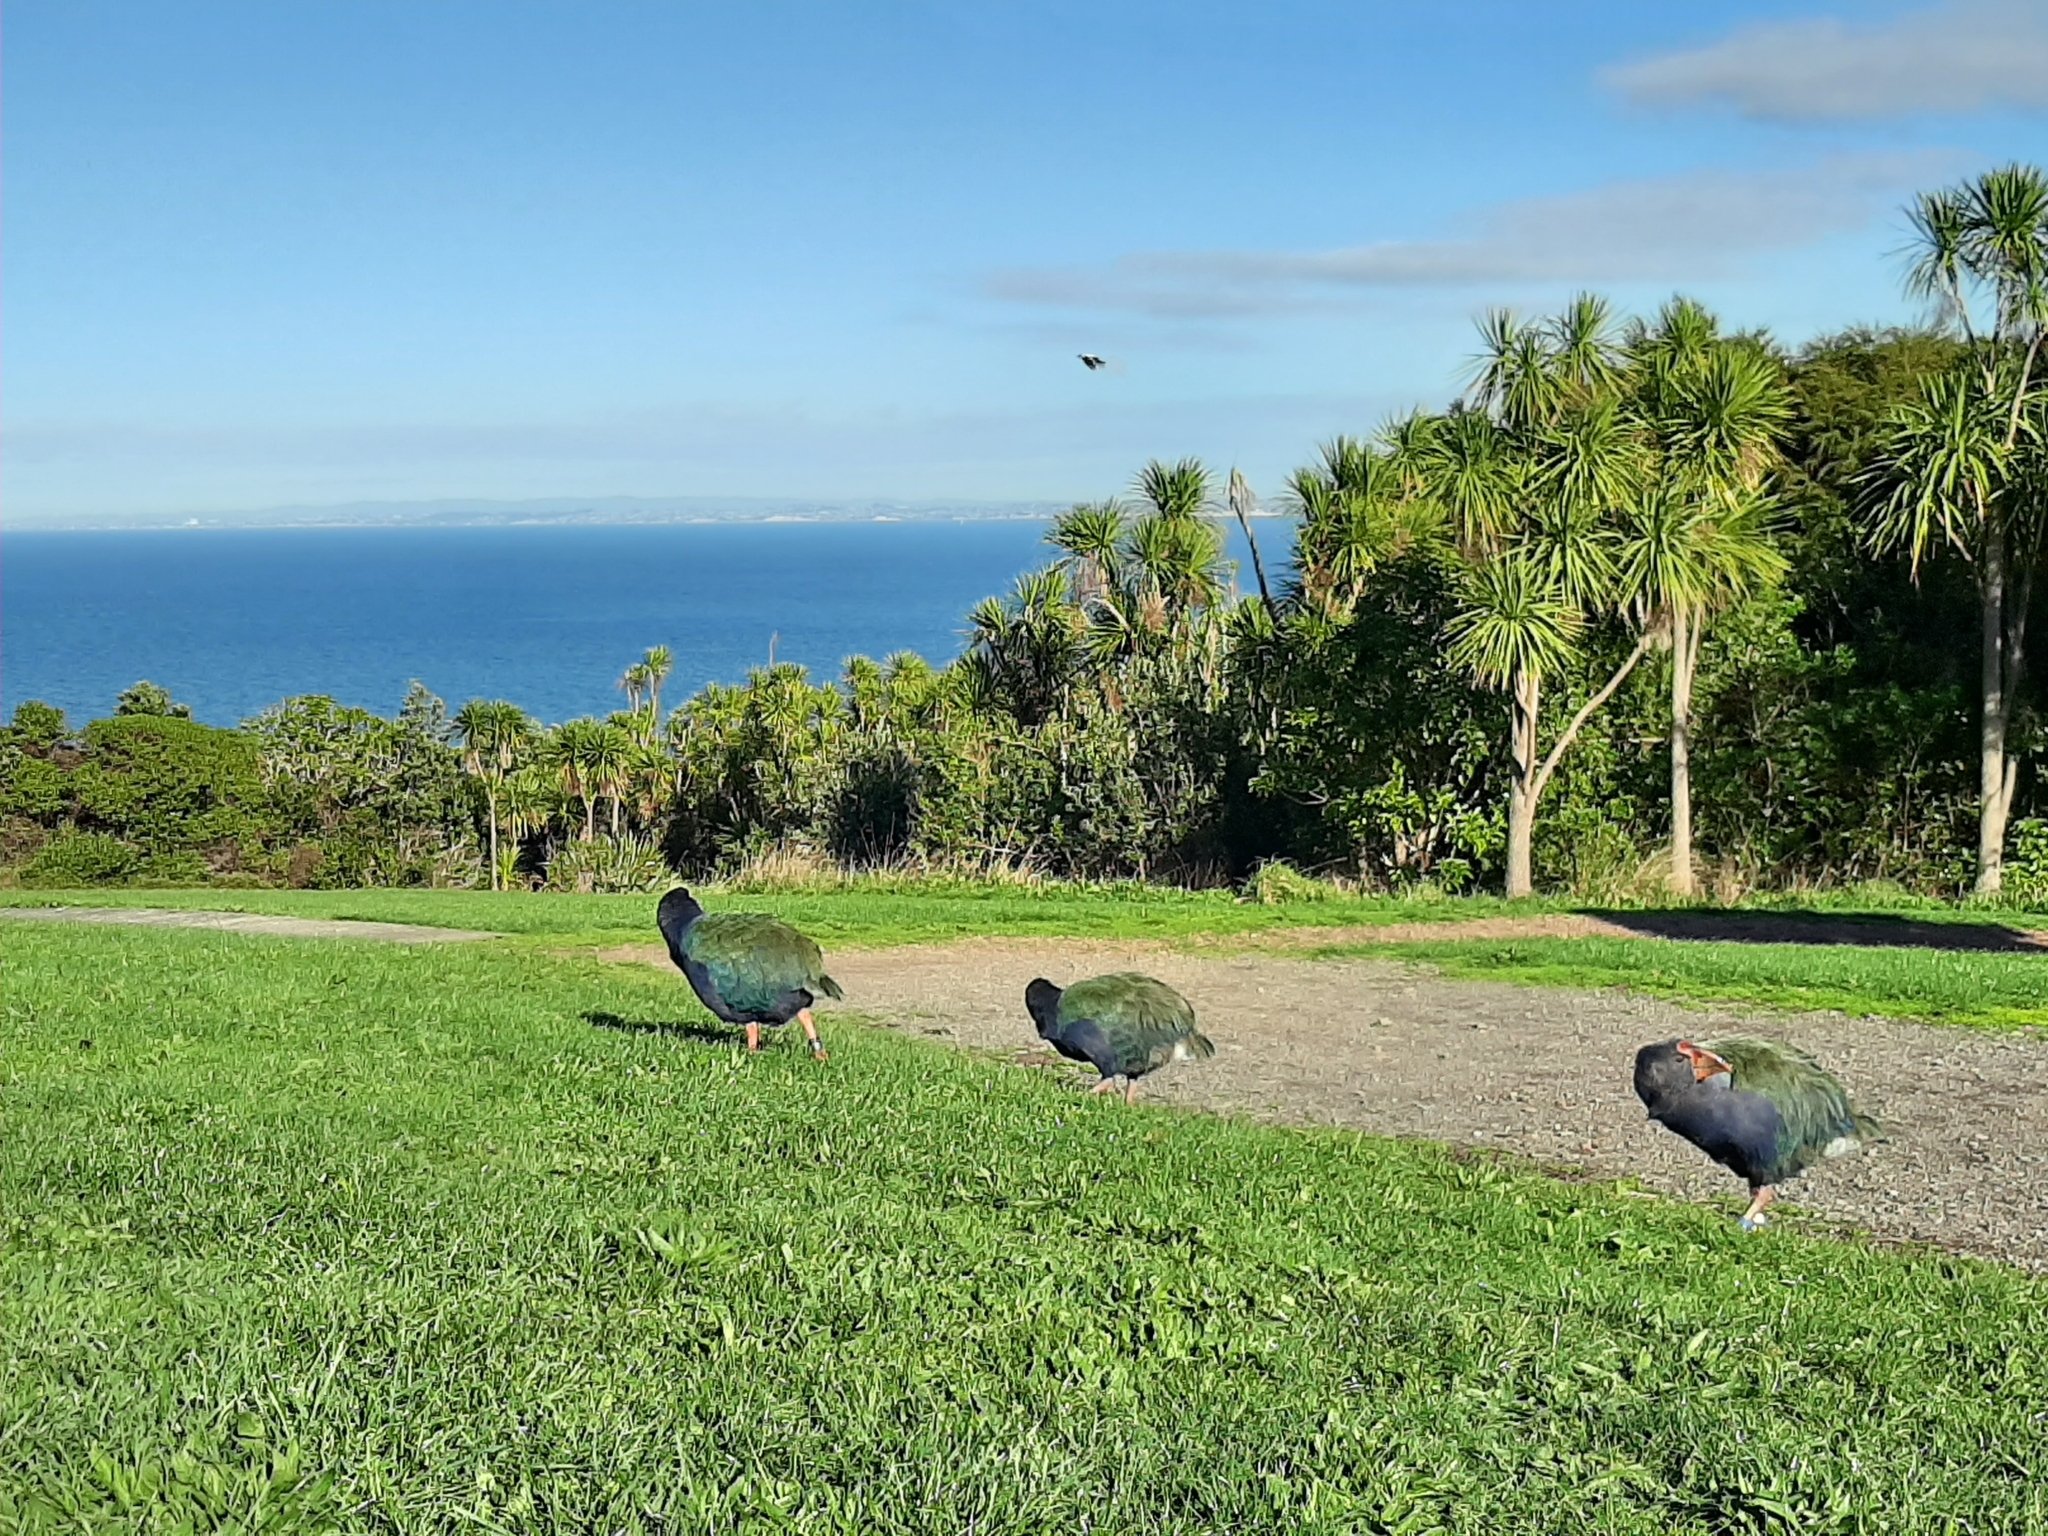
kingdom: Animalia
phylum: Chordata
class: Aves
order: Passeriformes
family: Cracticidae
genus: Gymnorhina
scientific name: Gymnorhina tibicen
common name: Australian magpie
